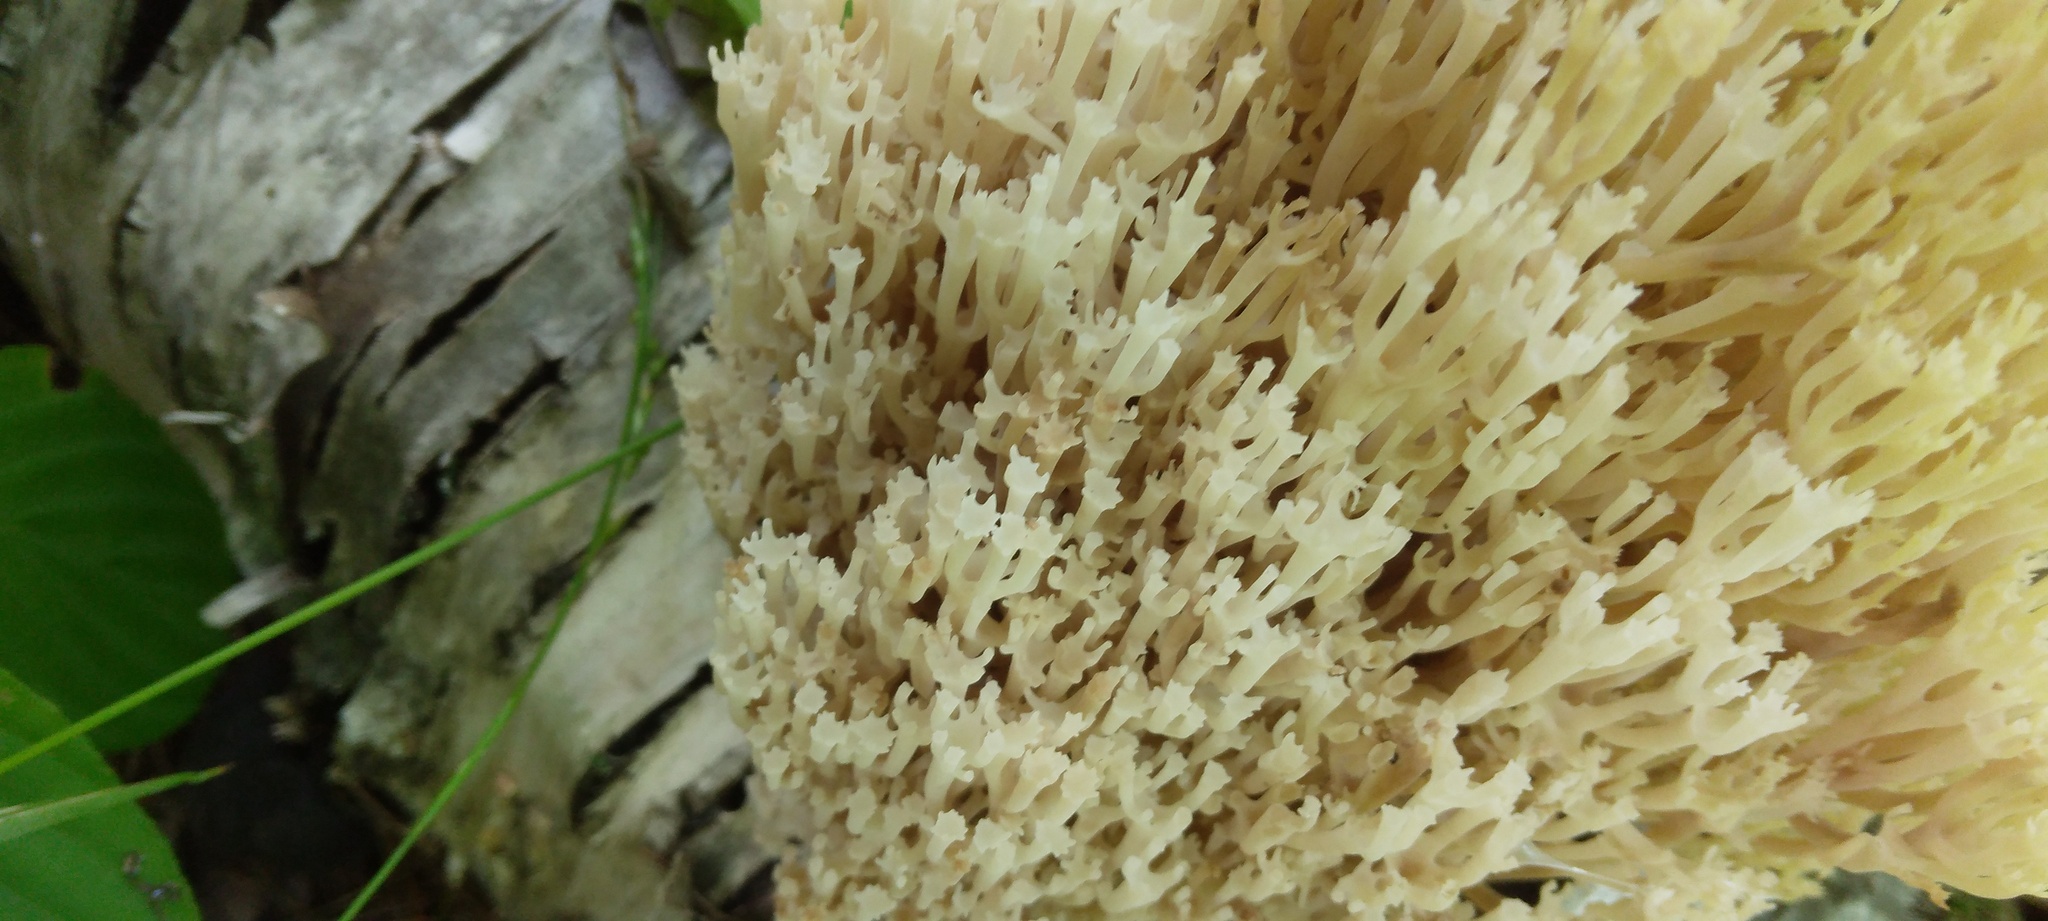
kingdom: Fungi
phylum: Basidiomycota
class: Agaricomycetes
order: Russulales
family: Auriscalpiaceae
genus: Artomyces
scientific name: Artomyces pyxidatus
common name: Crown-tipped coral fungus
